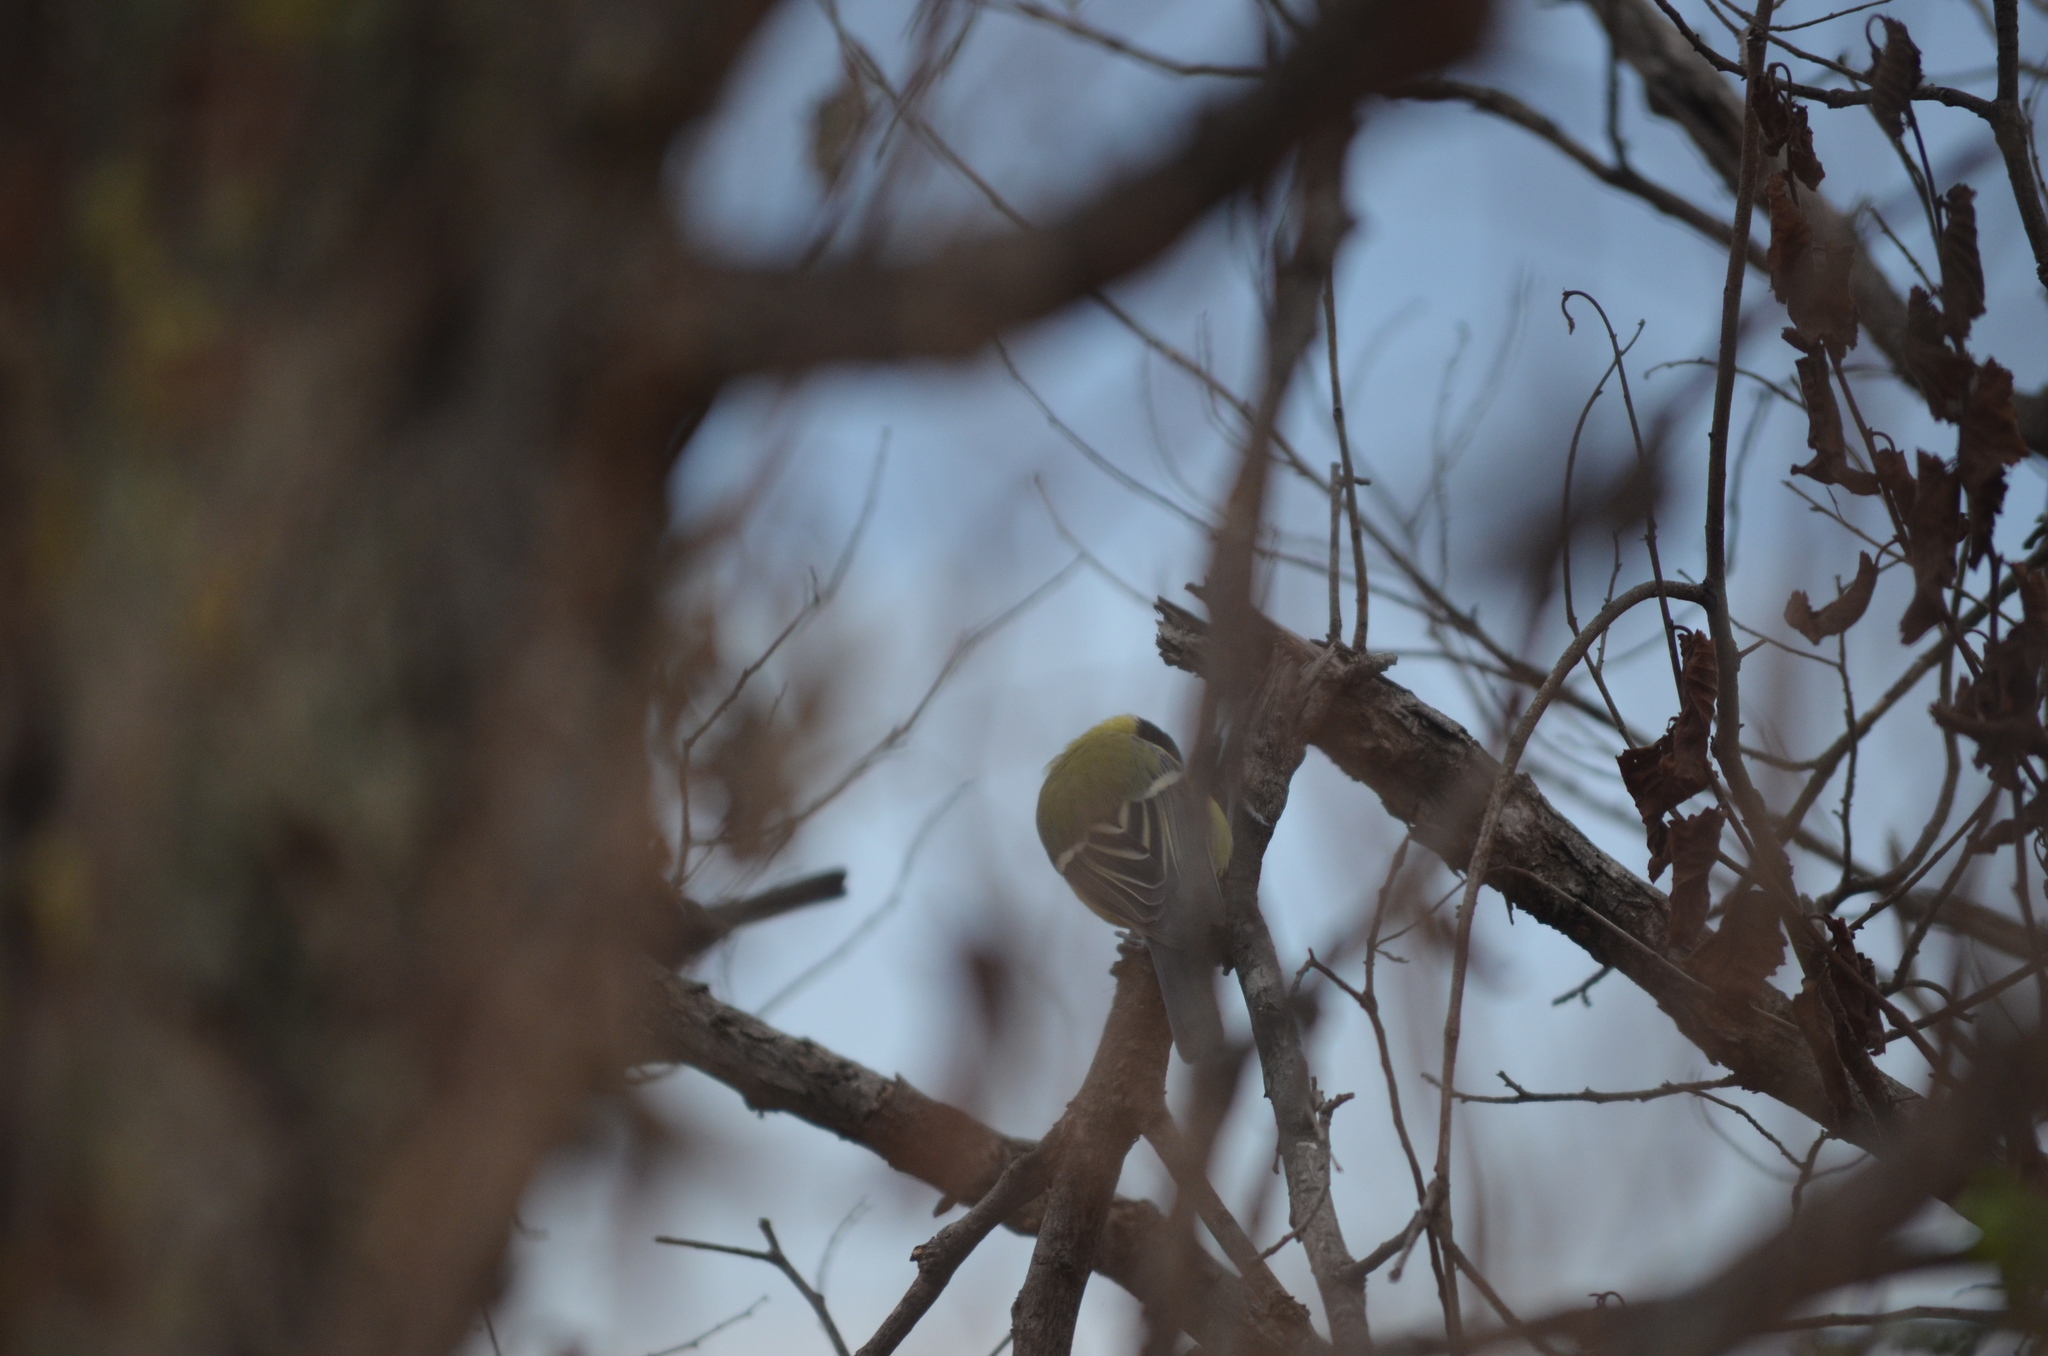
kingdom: Animalia
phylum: Chordata
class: Aves
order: Passeriformes
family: Paridae
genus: Parus
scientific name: Parus major
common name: Great tit
